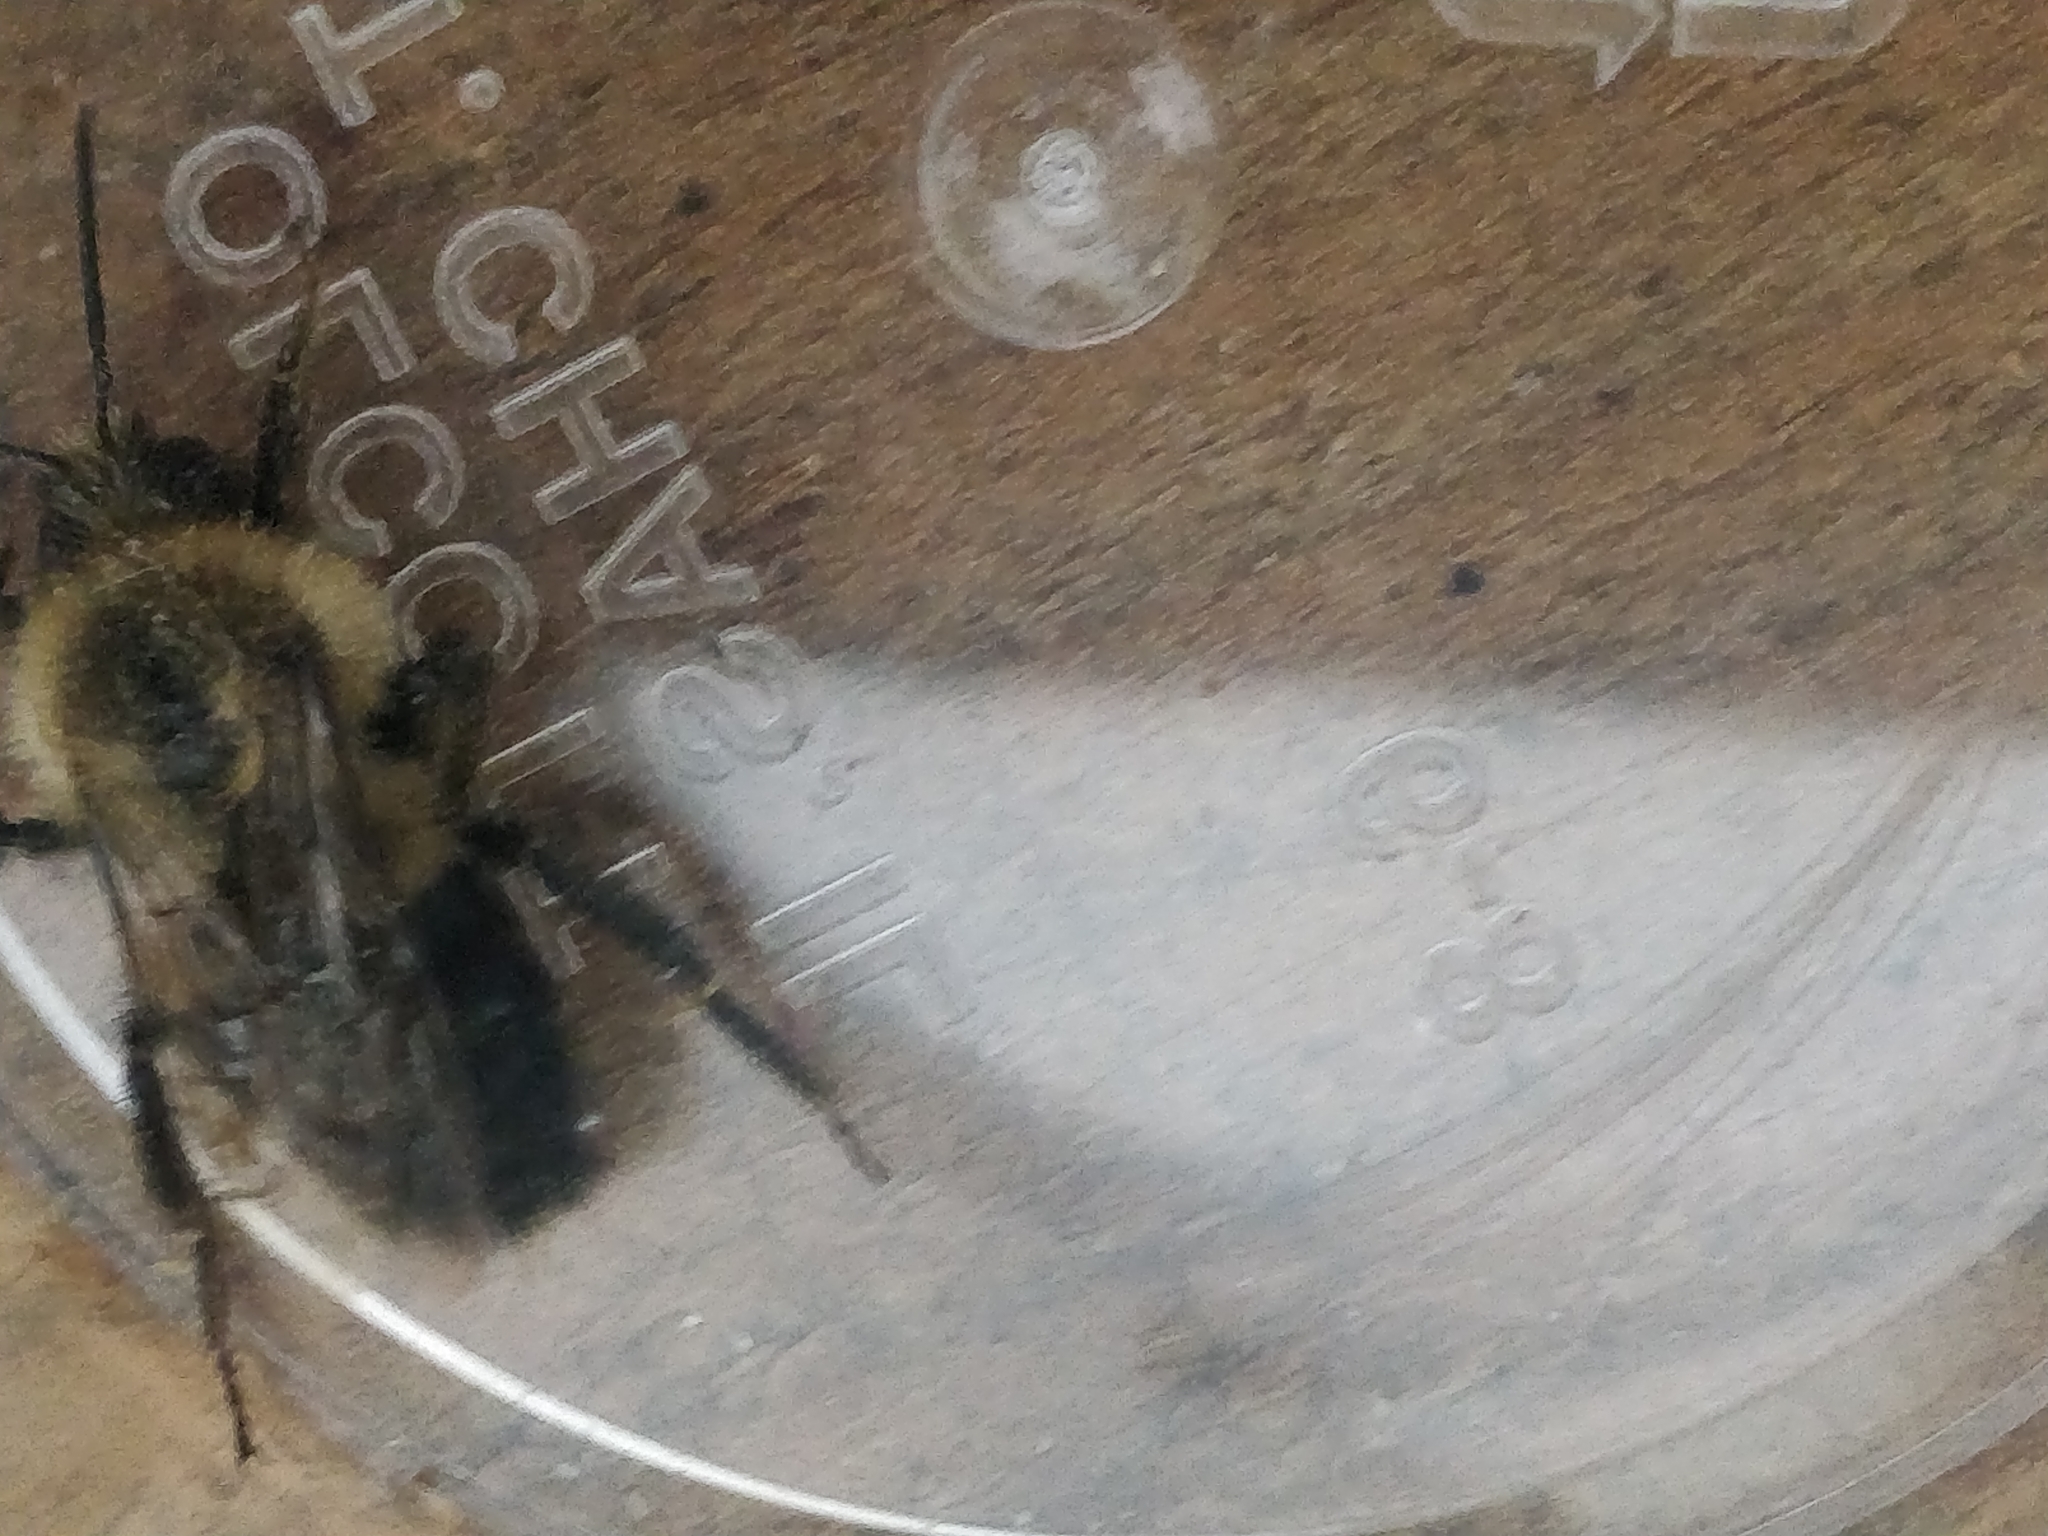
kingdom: Animalia
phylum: Arthropoda
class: Insecta
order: Hymenoptera
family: Apidae
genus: Bombus
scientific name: Bombus impatiens
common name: Common eastern bumble bee
